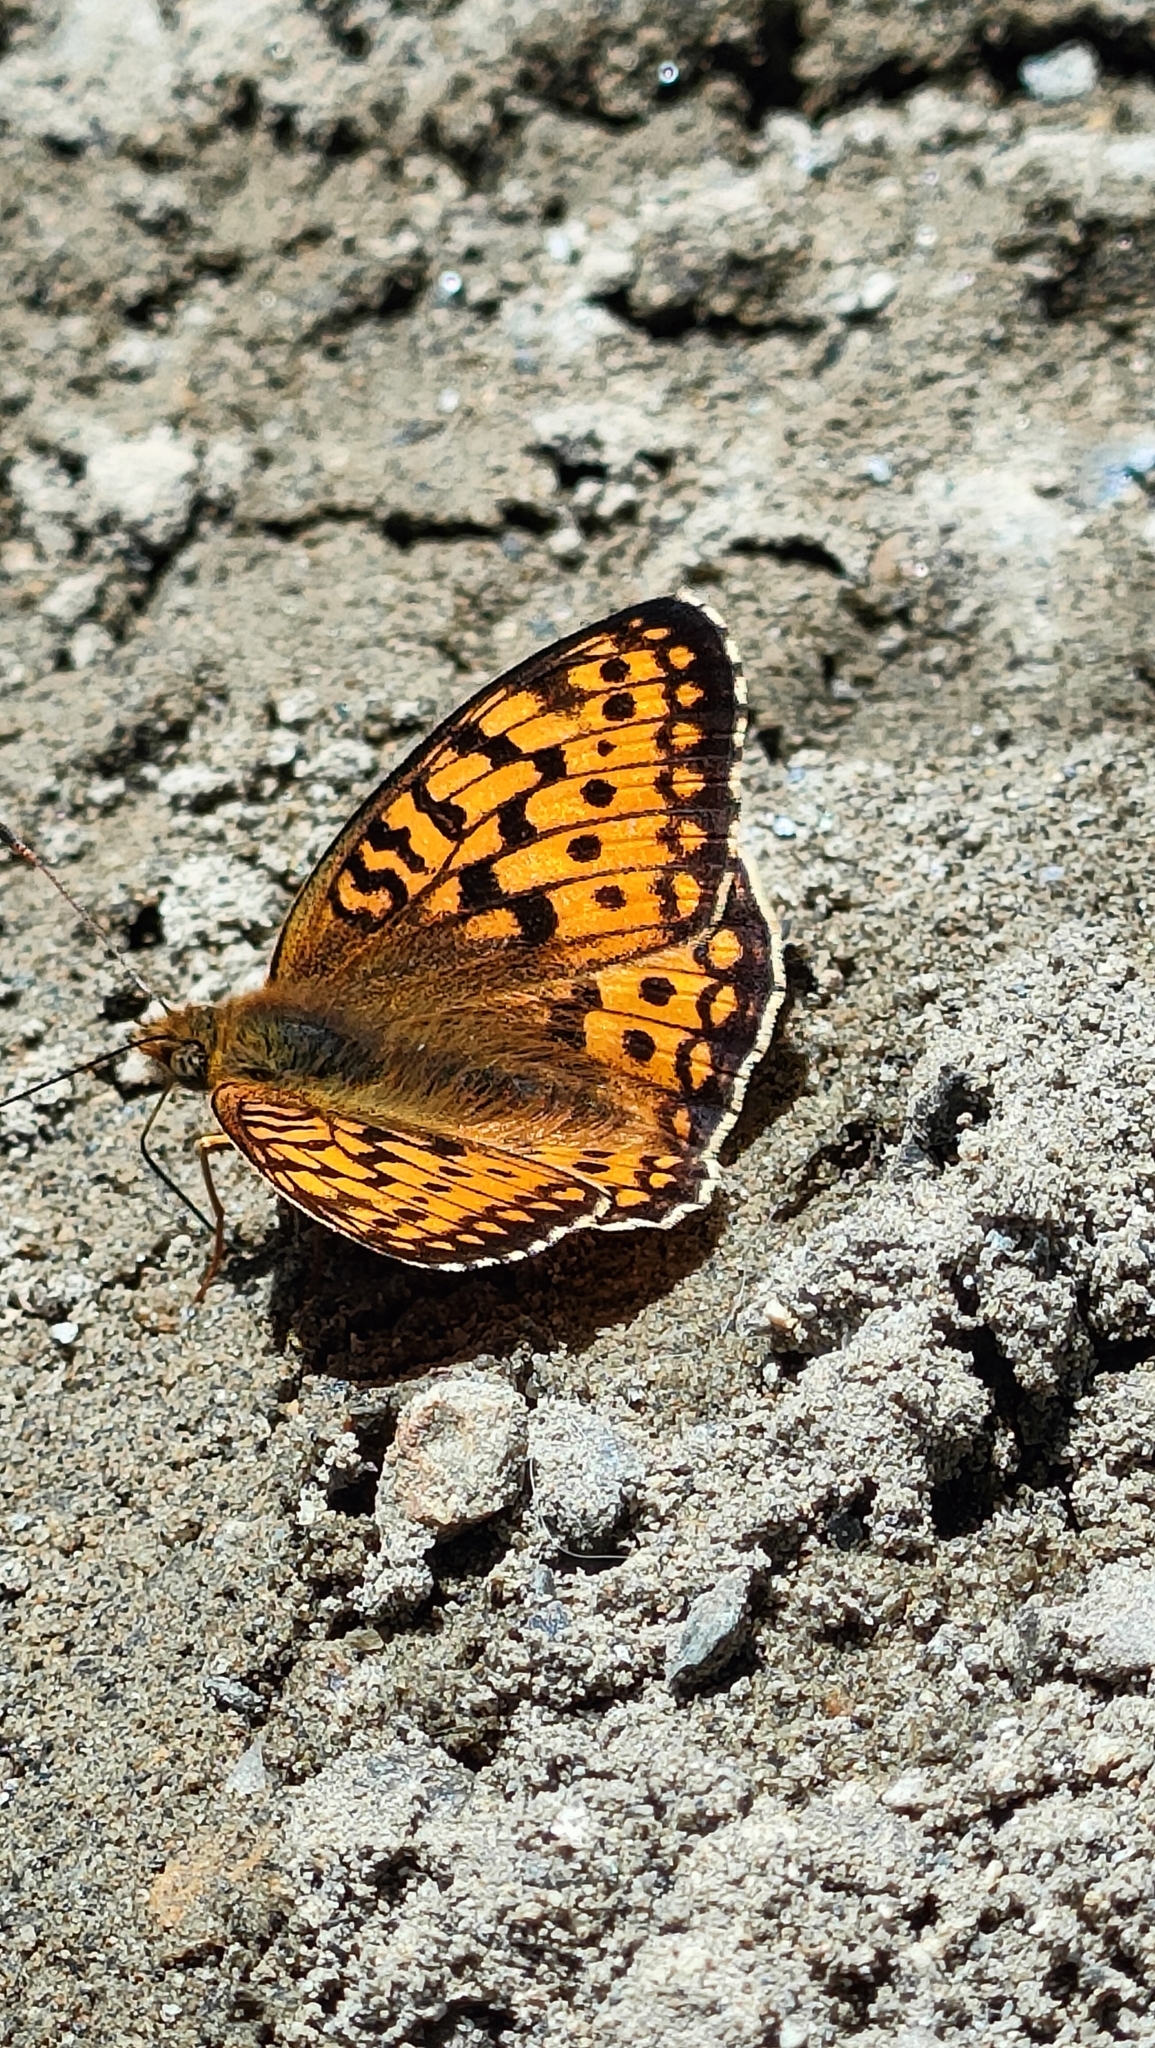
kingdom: Animalia
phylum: Arthropoda
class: Insecta
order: Lepidoptera
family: Nymphalidae
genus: Fabriciana
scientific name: Fabriciana niobe
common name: Niobe fritillary
